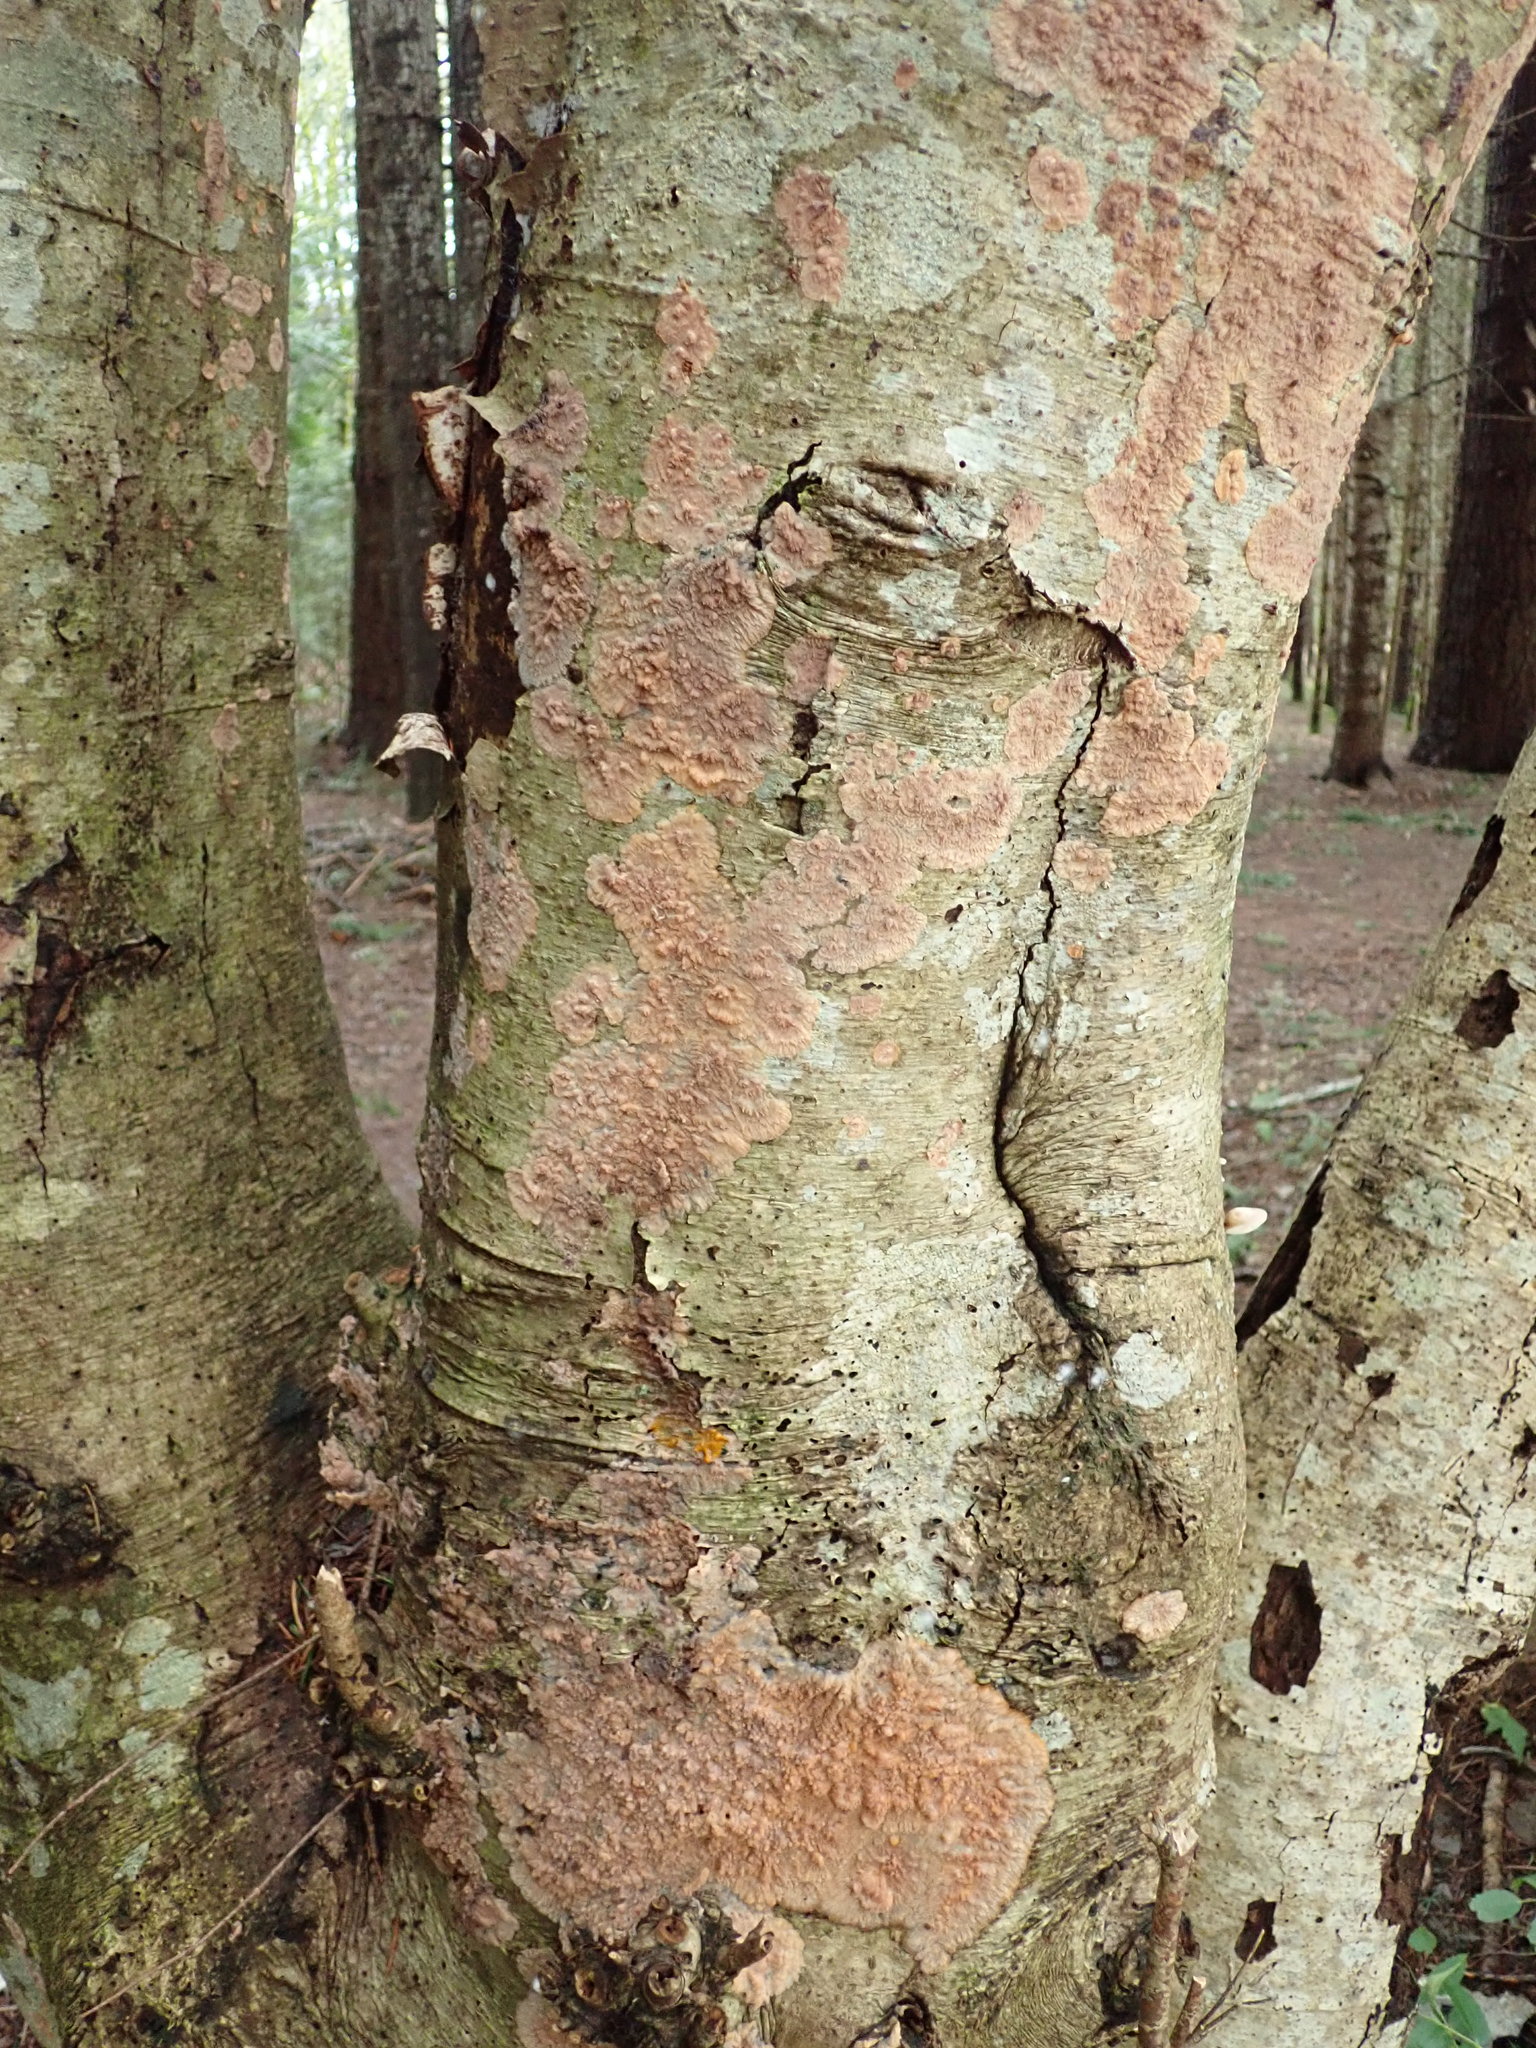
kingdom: Fungi
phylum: Basidiomycota
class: Agaricomycetes
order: Polyporales
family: Meruliaceae
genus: Phlebia
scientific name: Phlebia radiata
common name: Wrinkled crust
